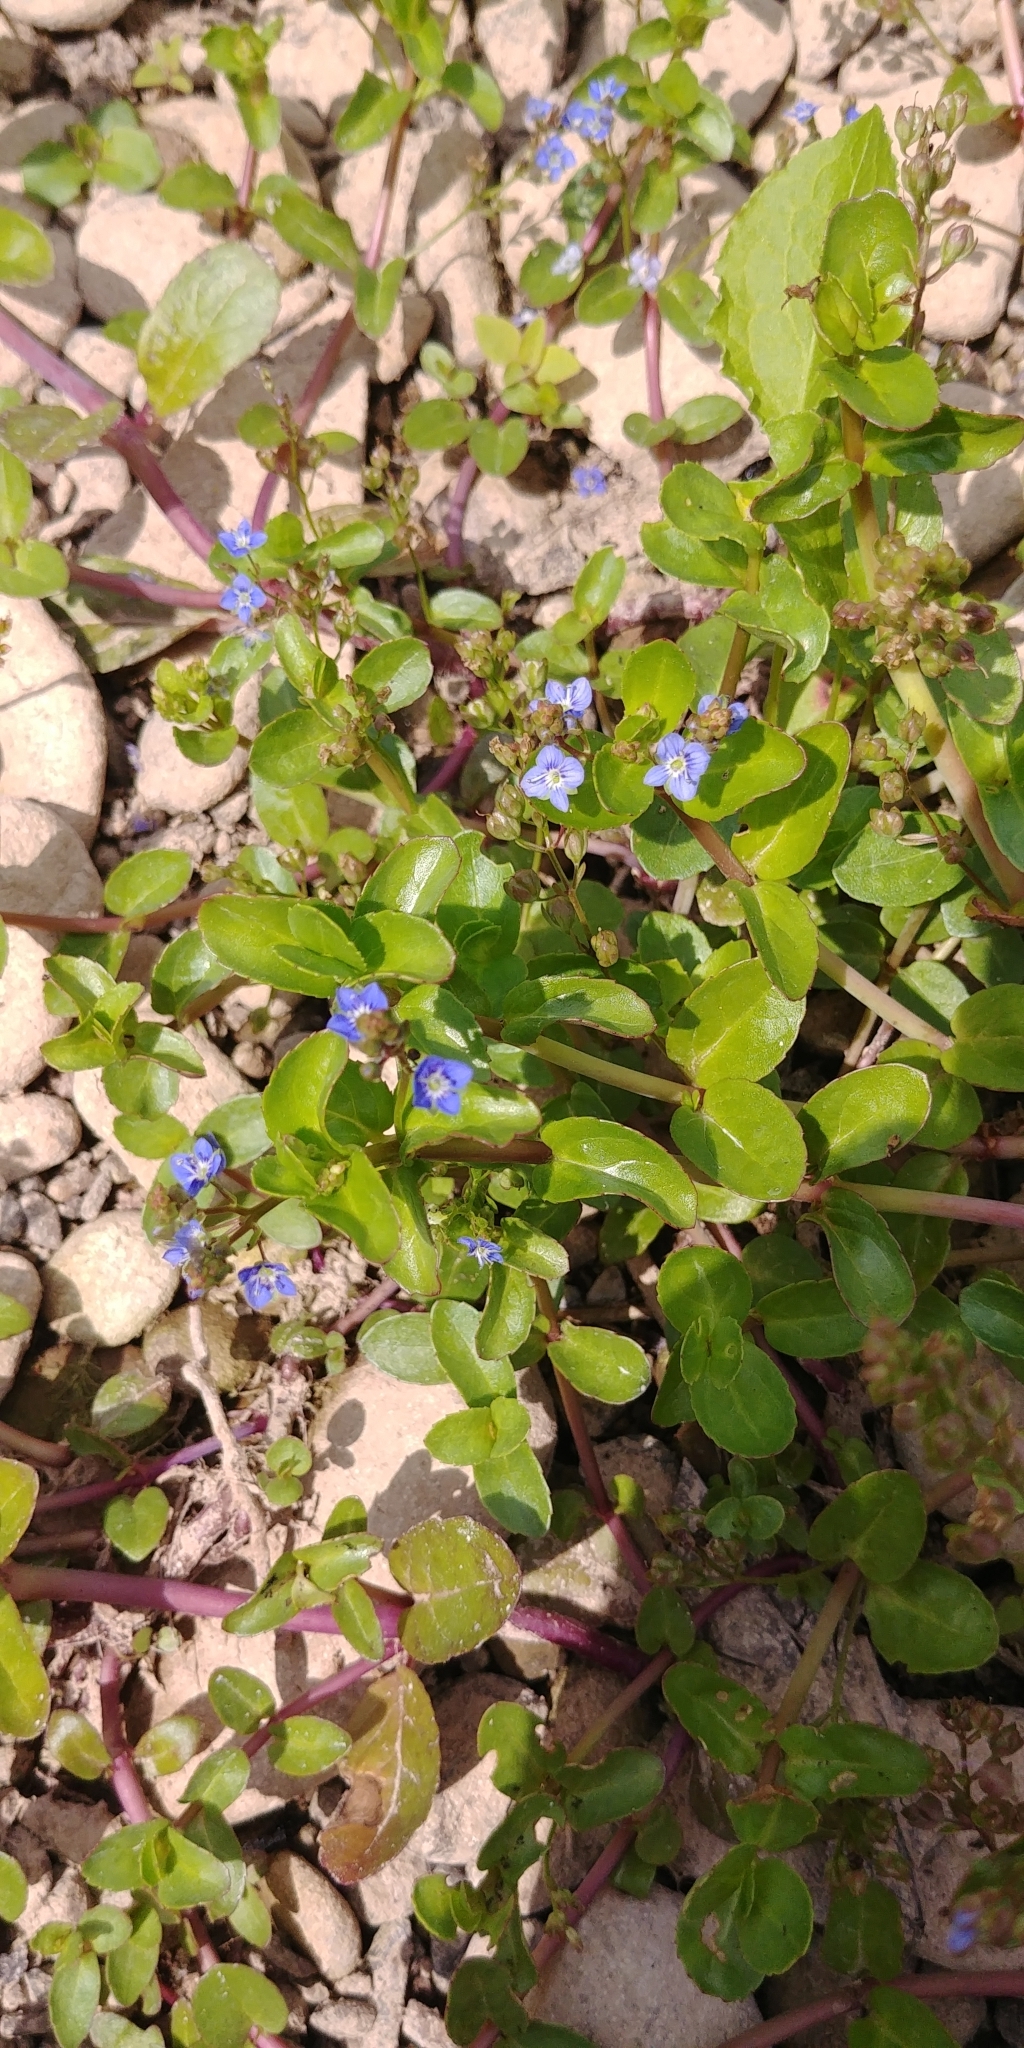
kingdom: Plantae
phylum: Tracheophyta
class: Magnoliopsida
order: Lamiales
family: Plantaginaceae
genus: Veronica
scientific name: Veronica beccabunga
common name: Brooklime
